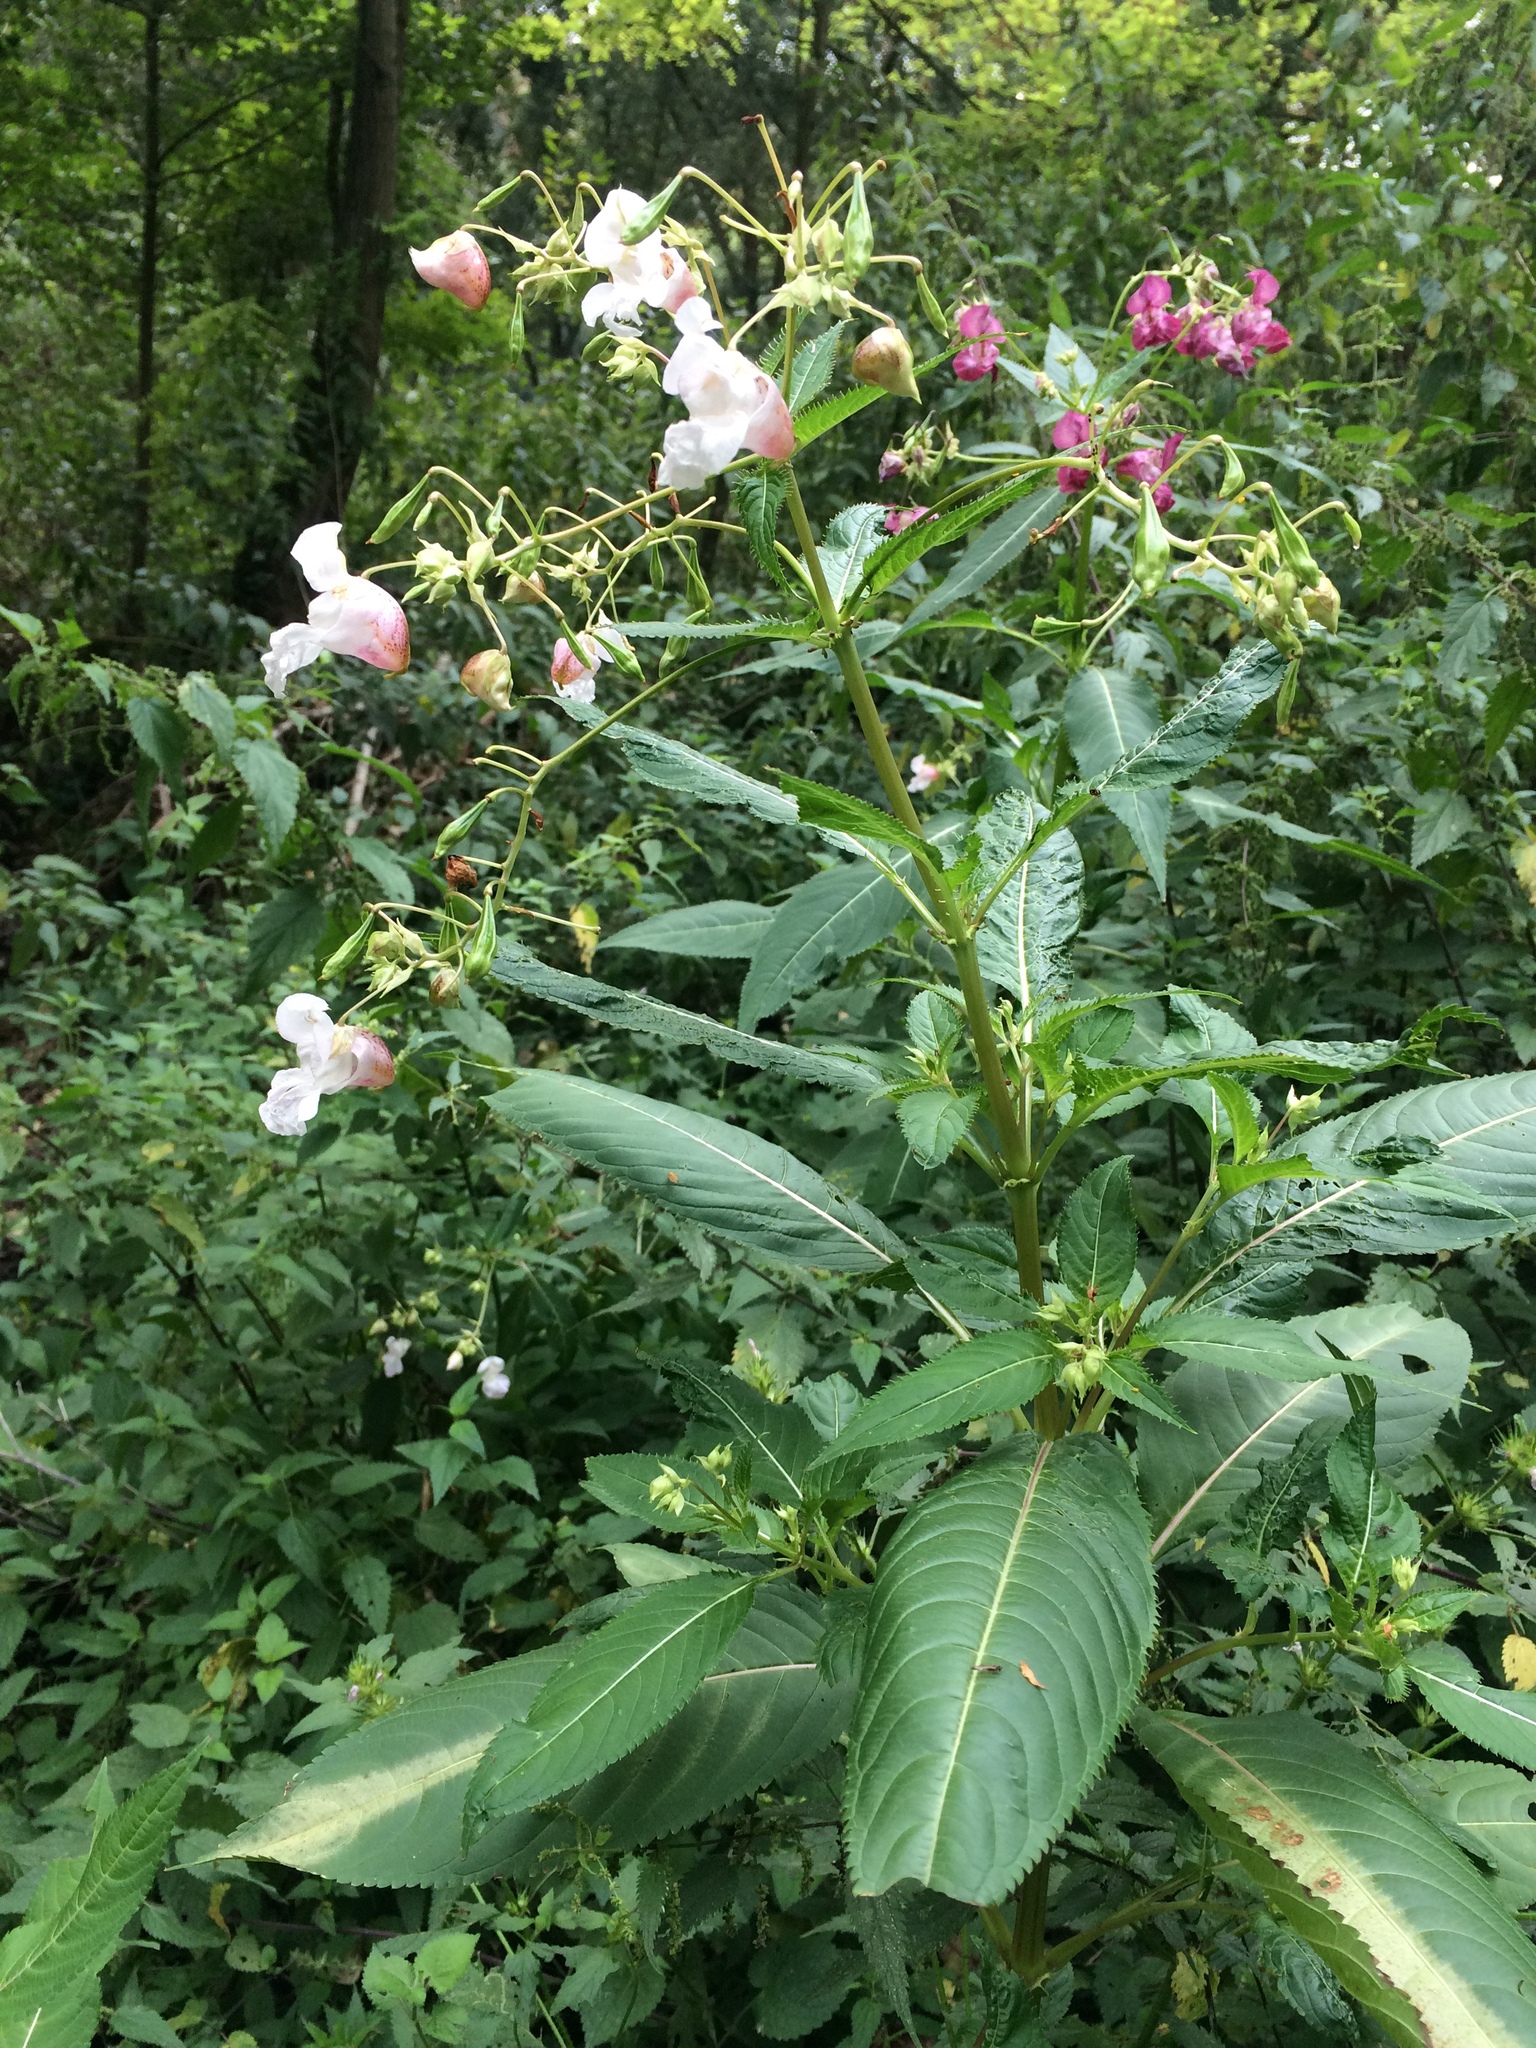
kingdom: Plantae
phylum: Tracheophyta
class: Magnoliopsida
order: Ericales
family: Balsaminaceae
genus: Impatiens
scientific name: Impatiens glandulifera
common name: Himalayan balsam
